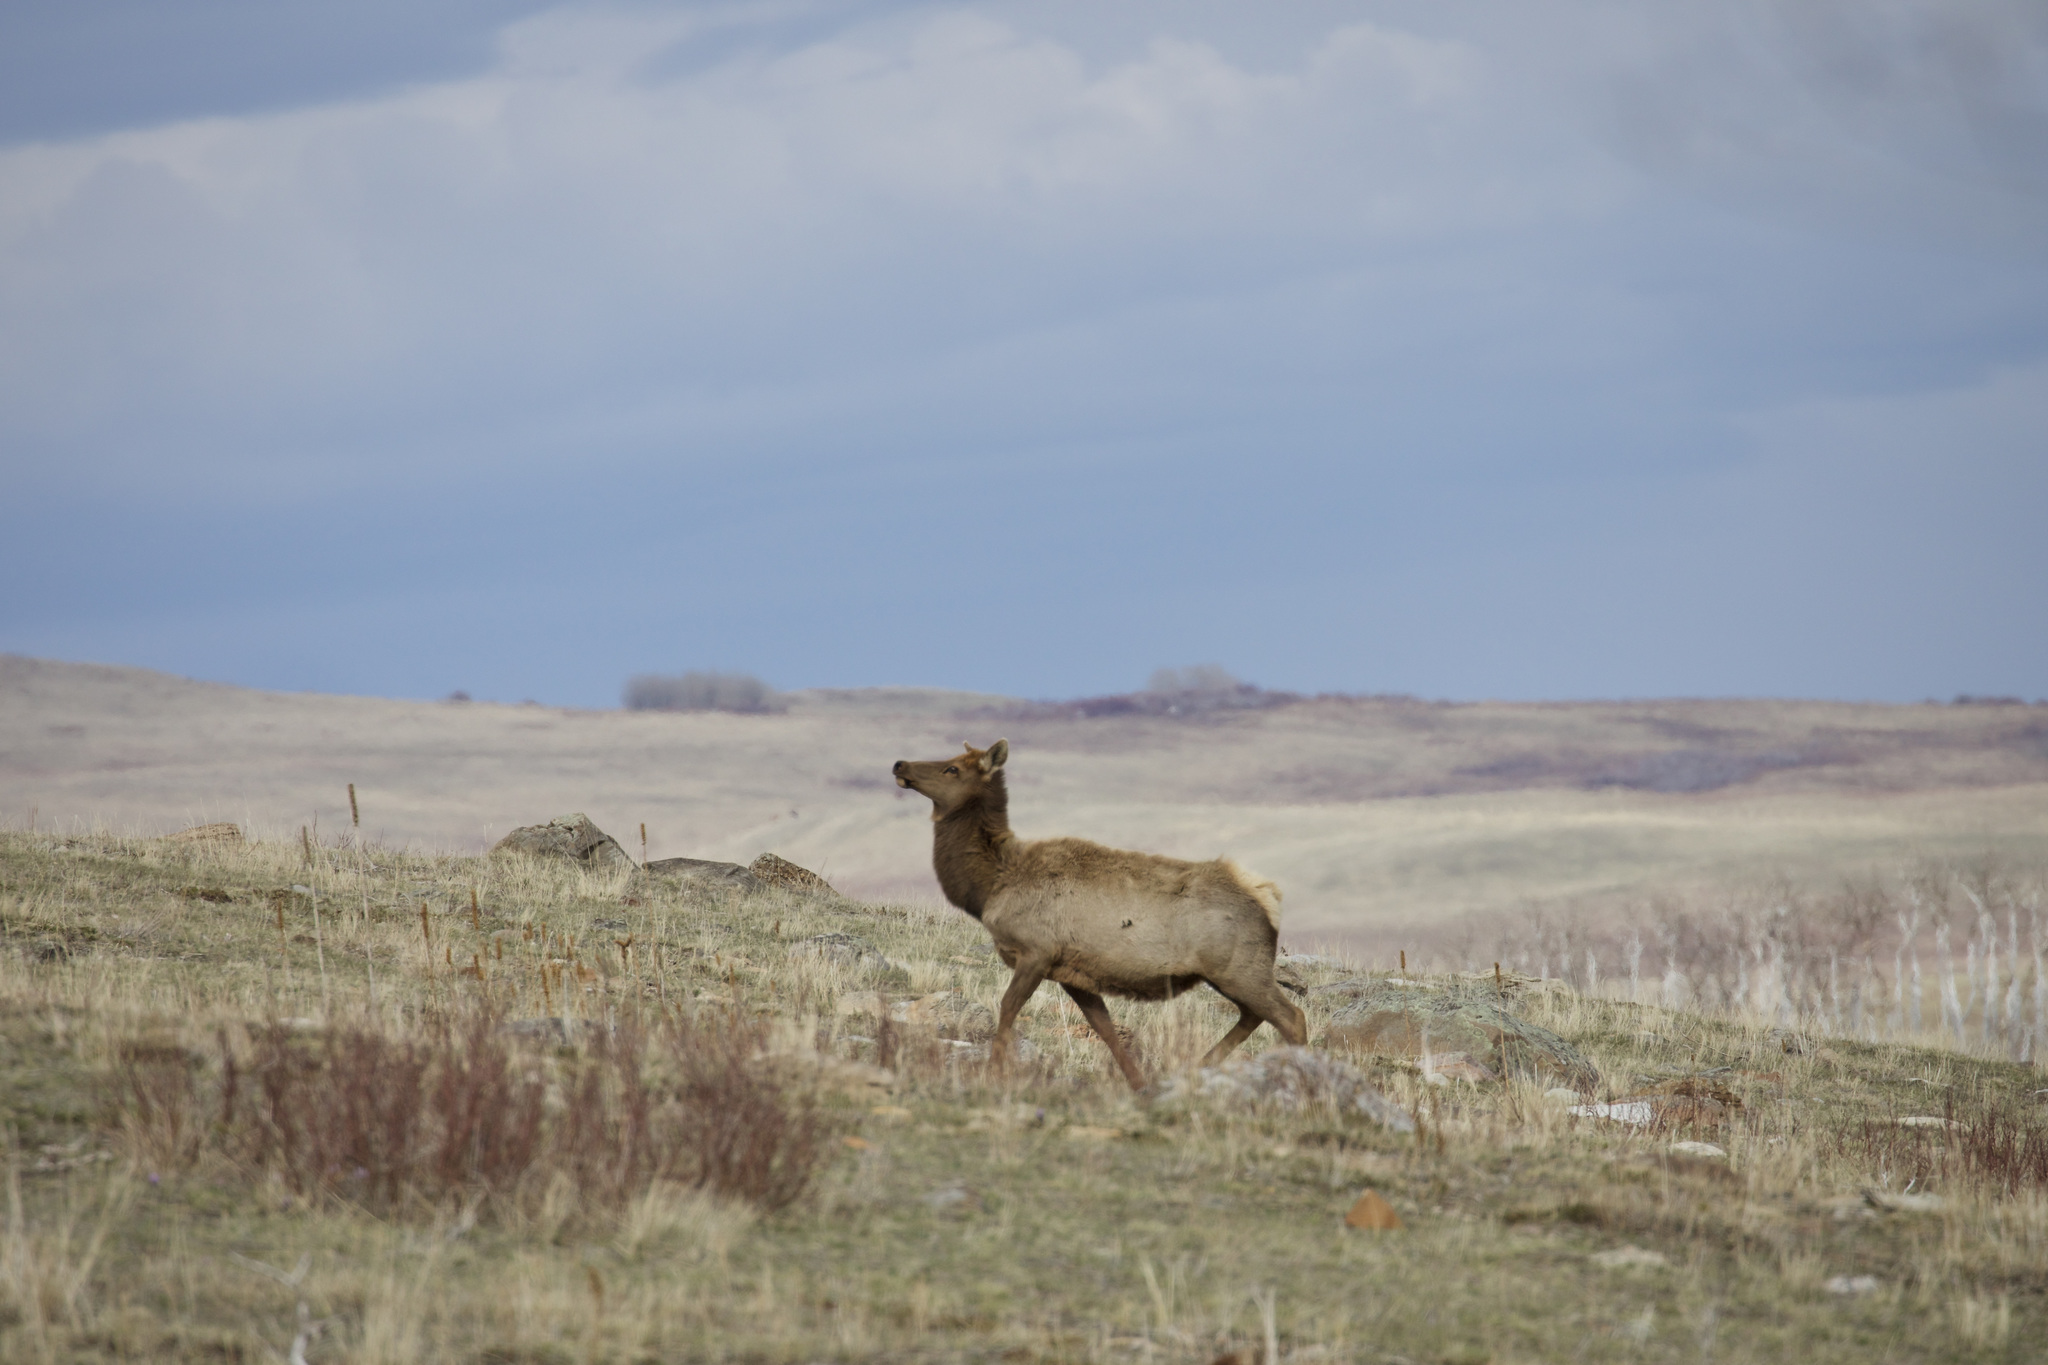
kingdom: Animalia
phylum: Chordata
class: Mammalia
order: Artiodactyla
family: Cervidae
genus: Cervus
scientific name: Cervus elaphus
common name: Red deer
